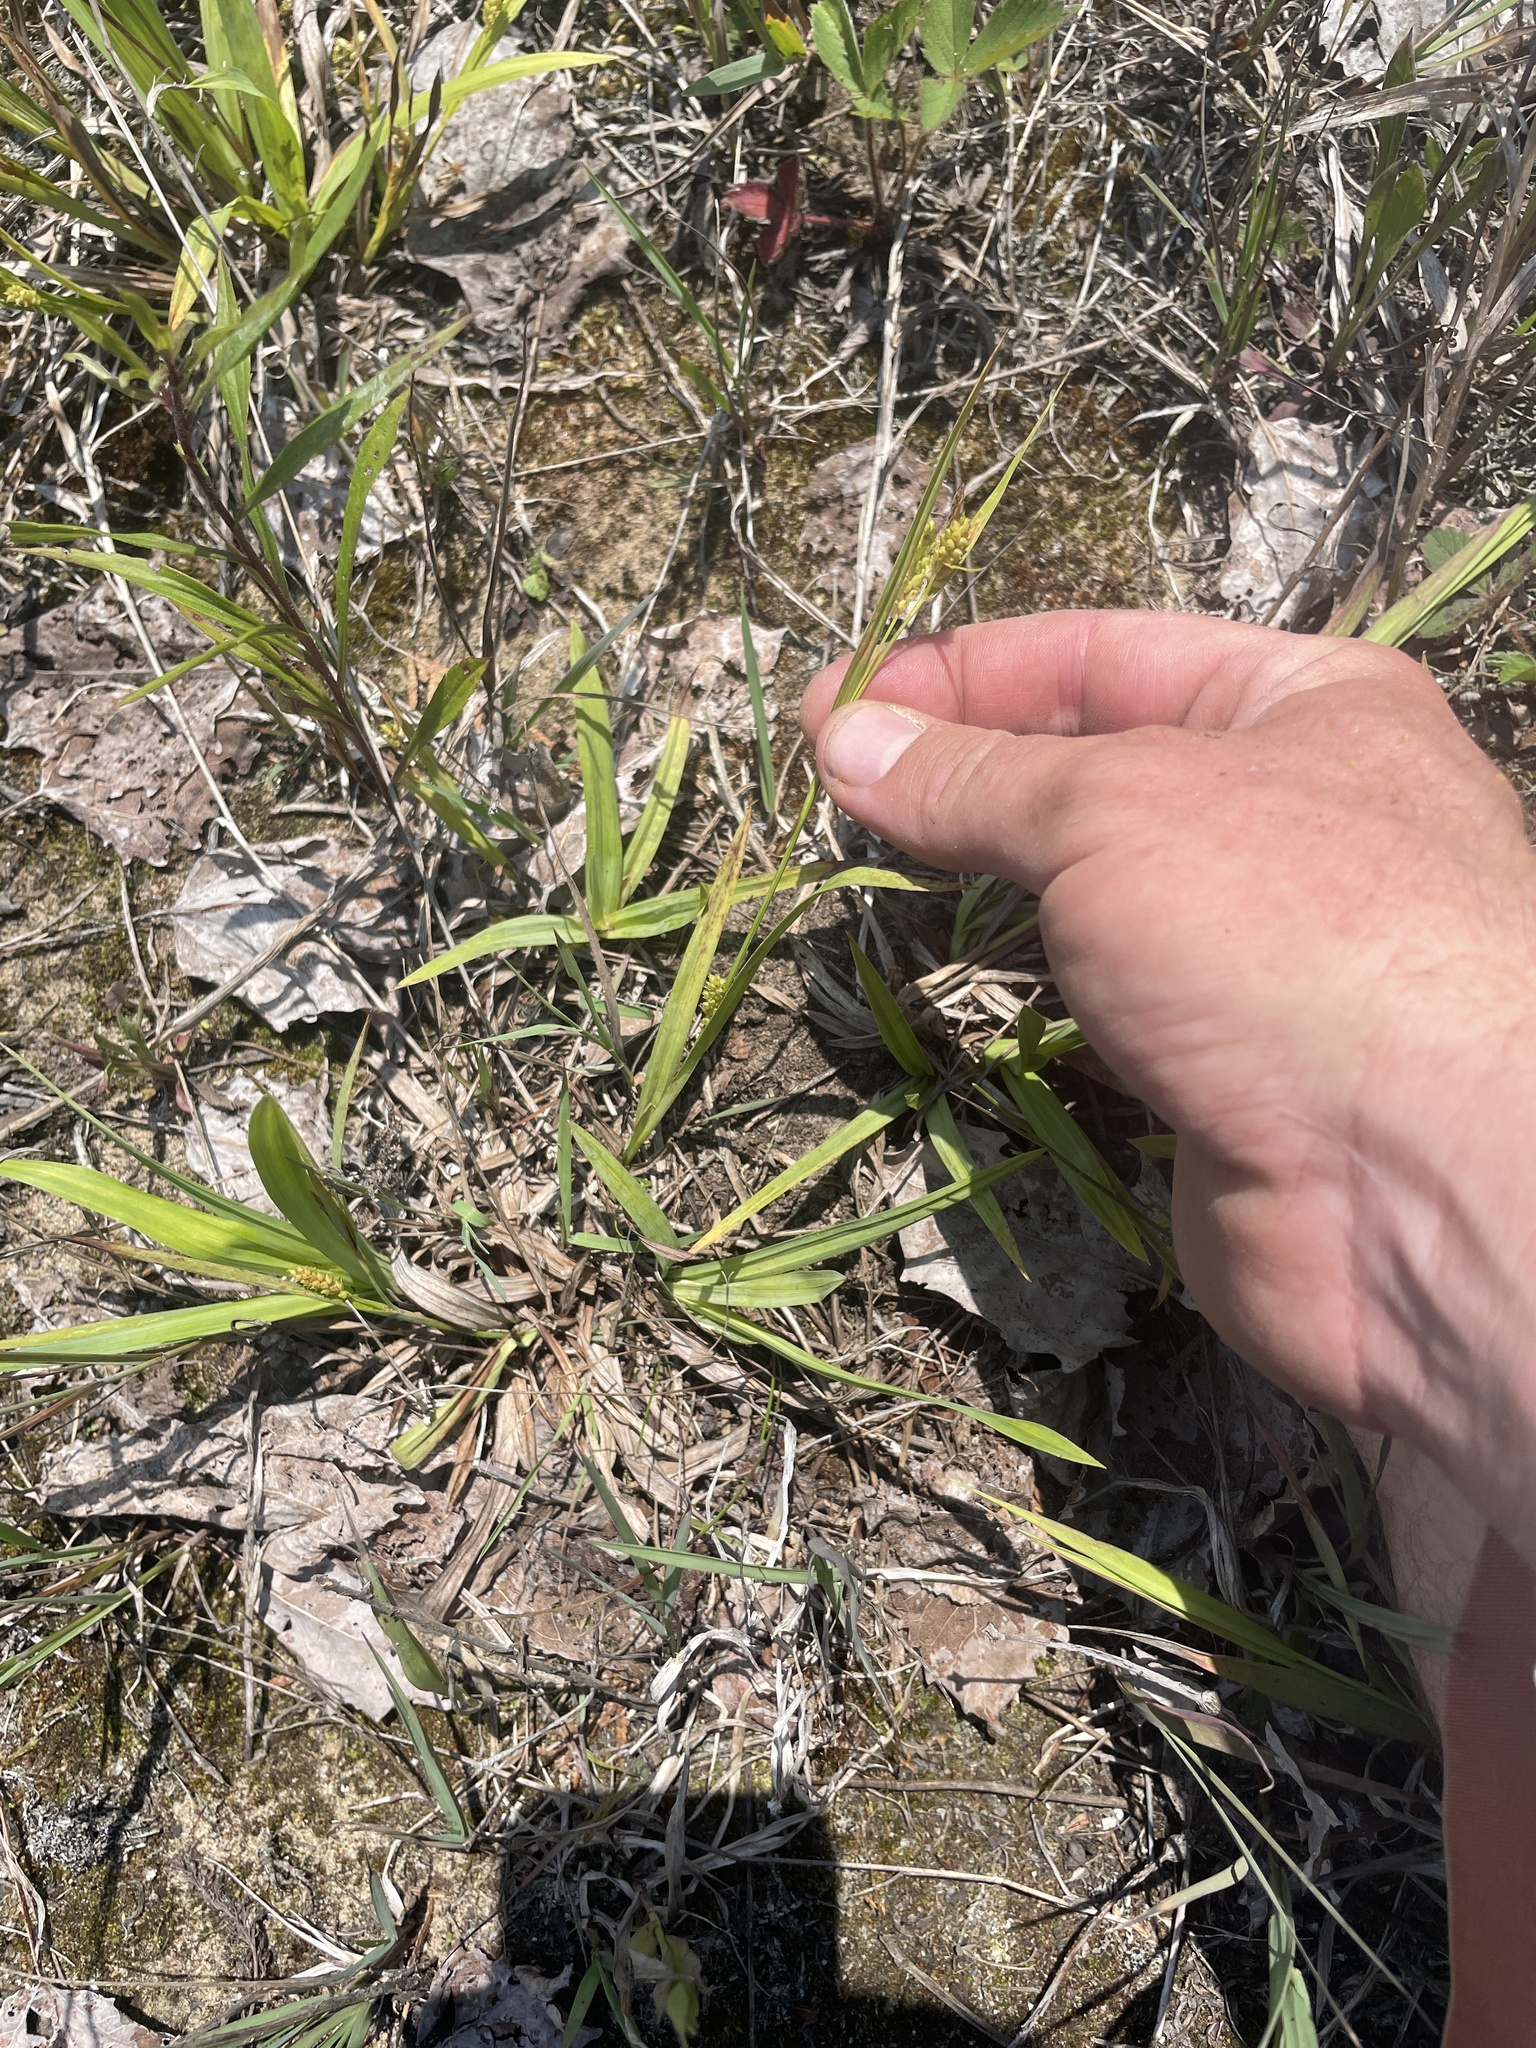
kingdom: Plantae
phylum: Tracheophyta
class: Liliopsida
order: Poales
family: Cyperaceae
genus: Carex
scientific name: Carex granularis
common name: Granular sedge
